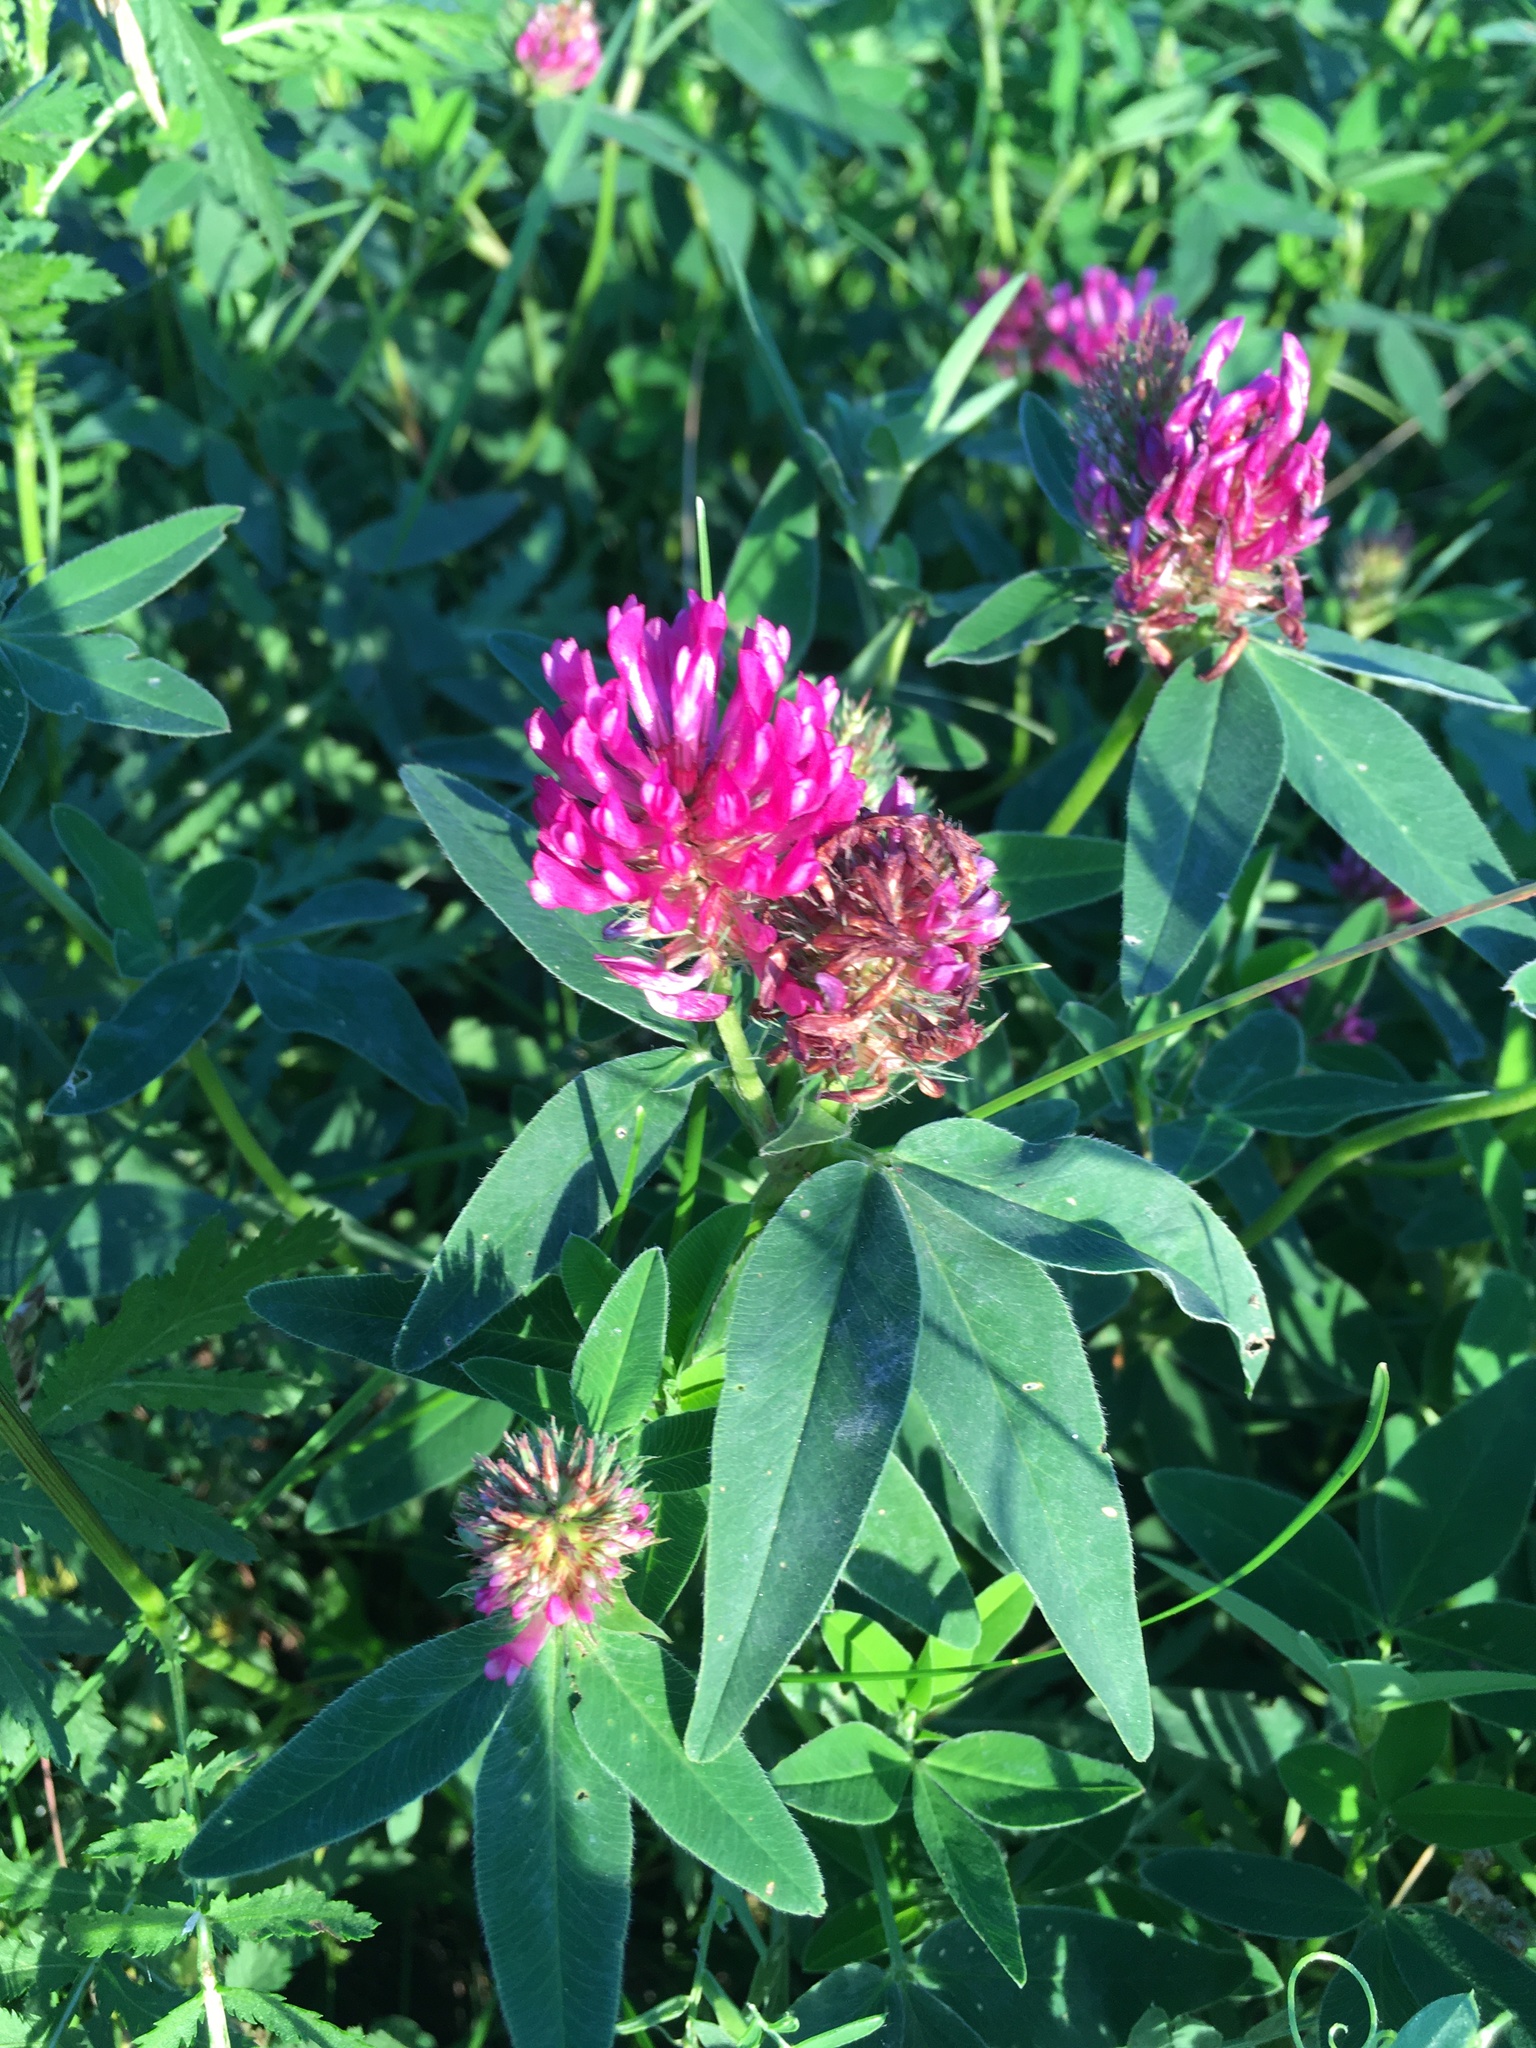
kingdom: Plantae
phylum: Tracheophyta
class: Magnoliopsida
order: Fabales
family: Fabaceae
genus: Trifolium
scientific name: Trifolium medium
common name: Zigzag clover
